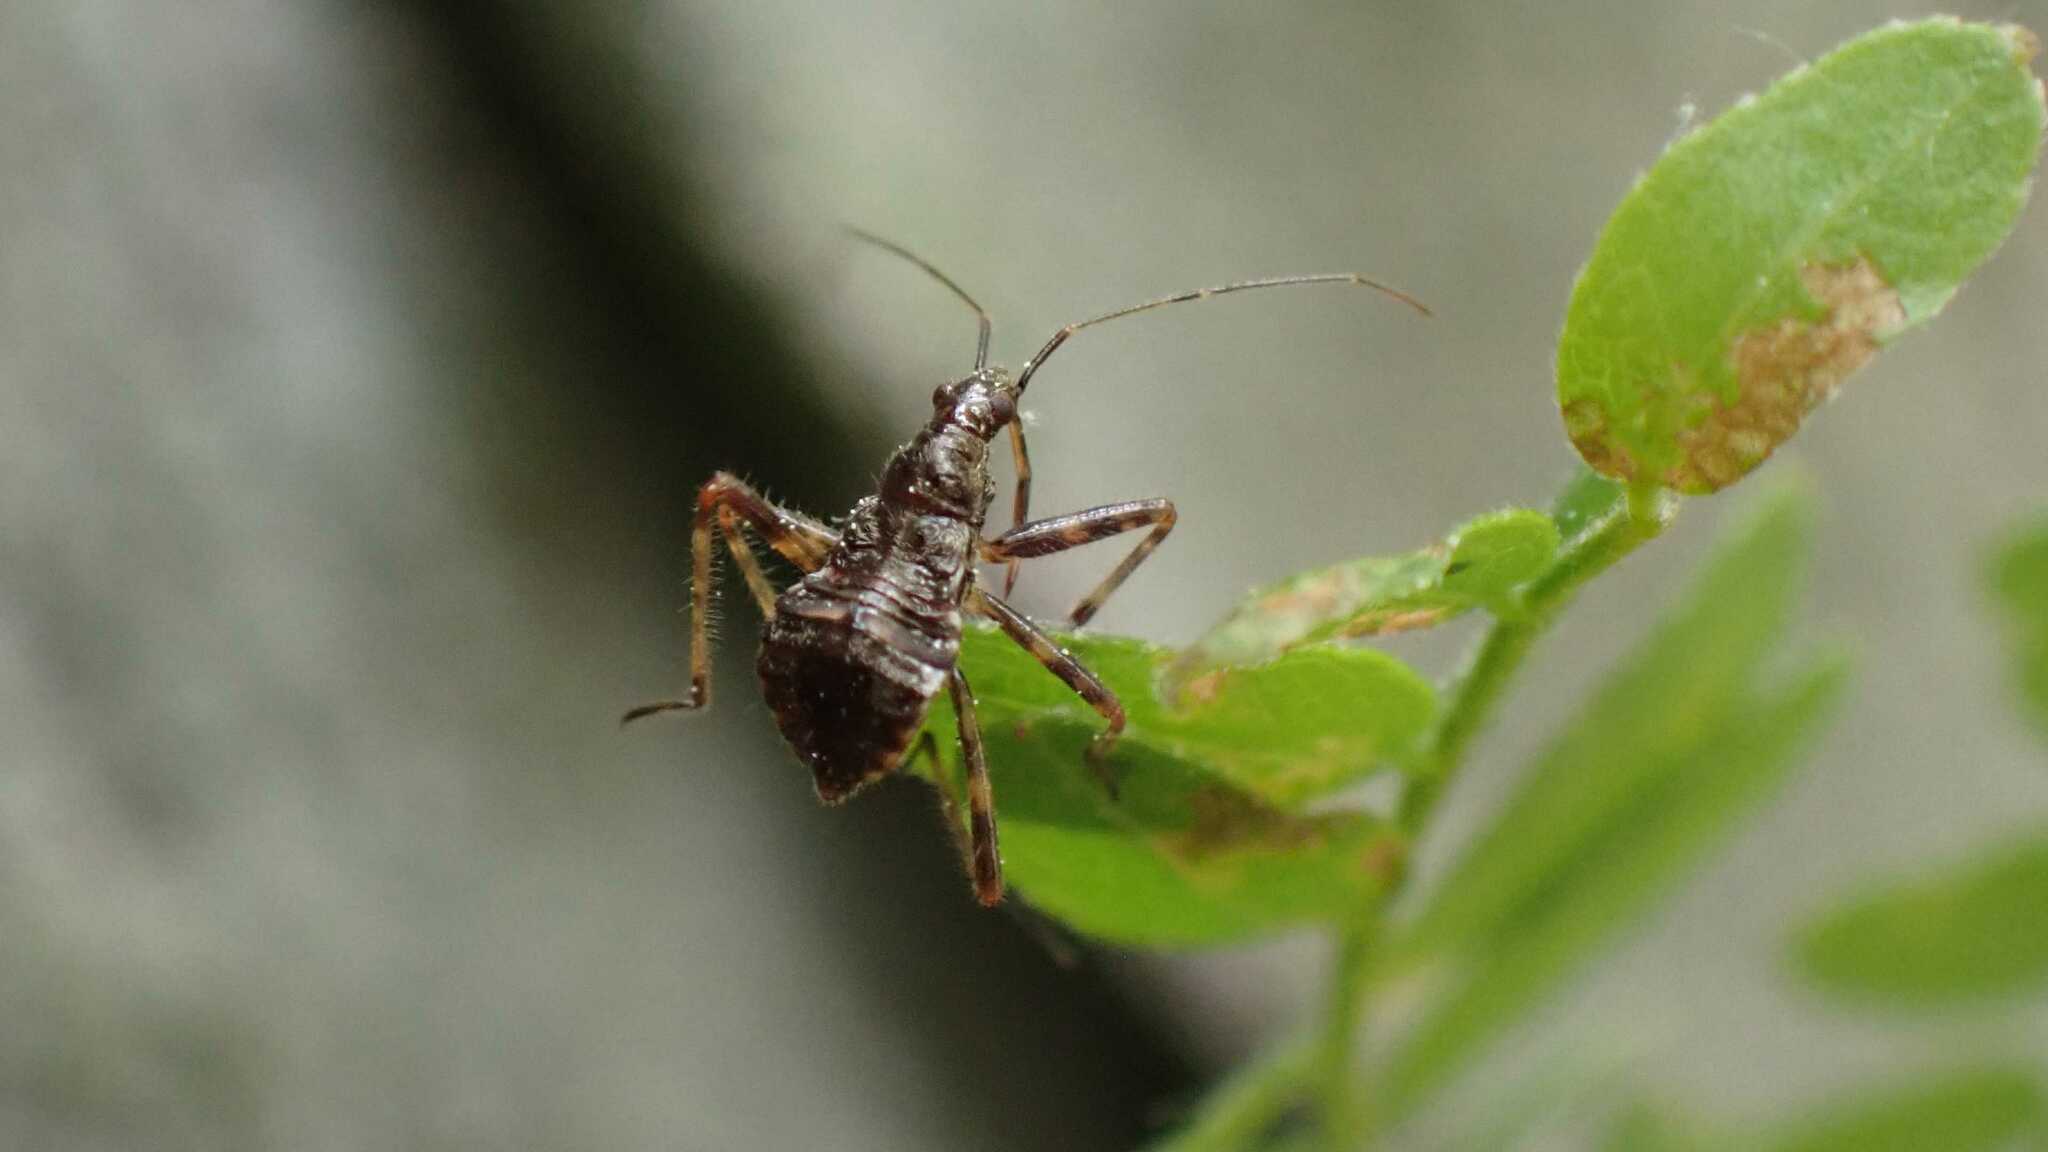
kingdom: Animalia
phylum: Arthropoda
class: Insecta
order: Hemiptera
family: Nabidae
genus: Himacerus
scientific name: Himacerus apterus
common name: Tree damsel bug
